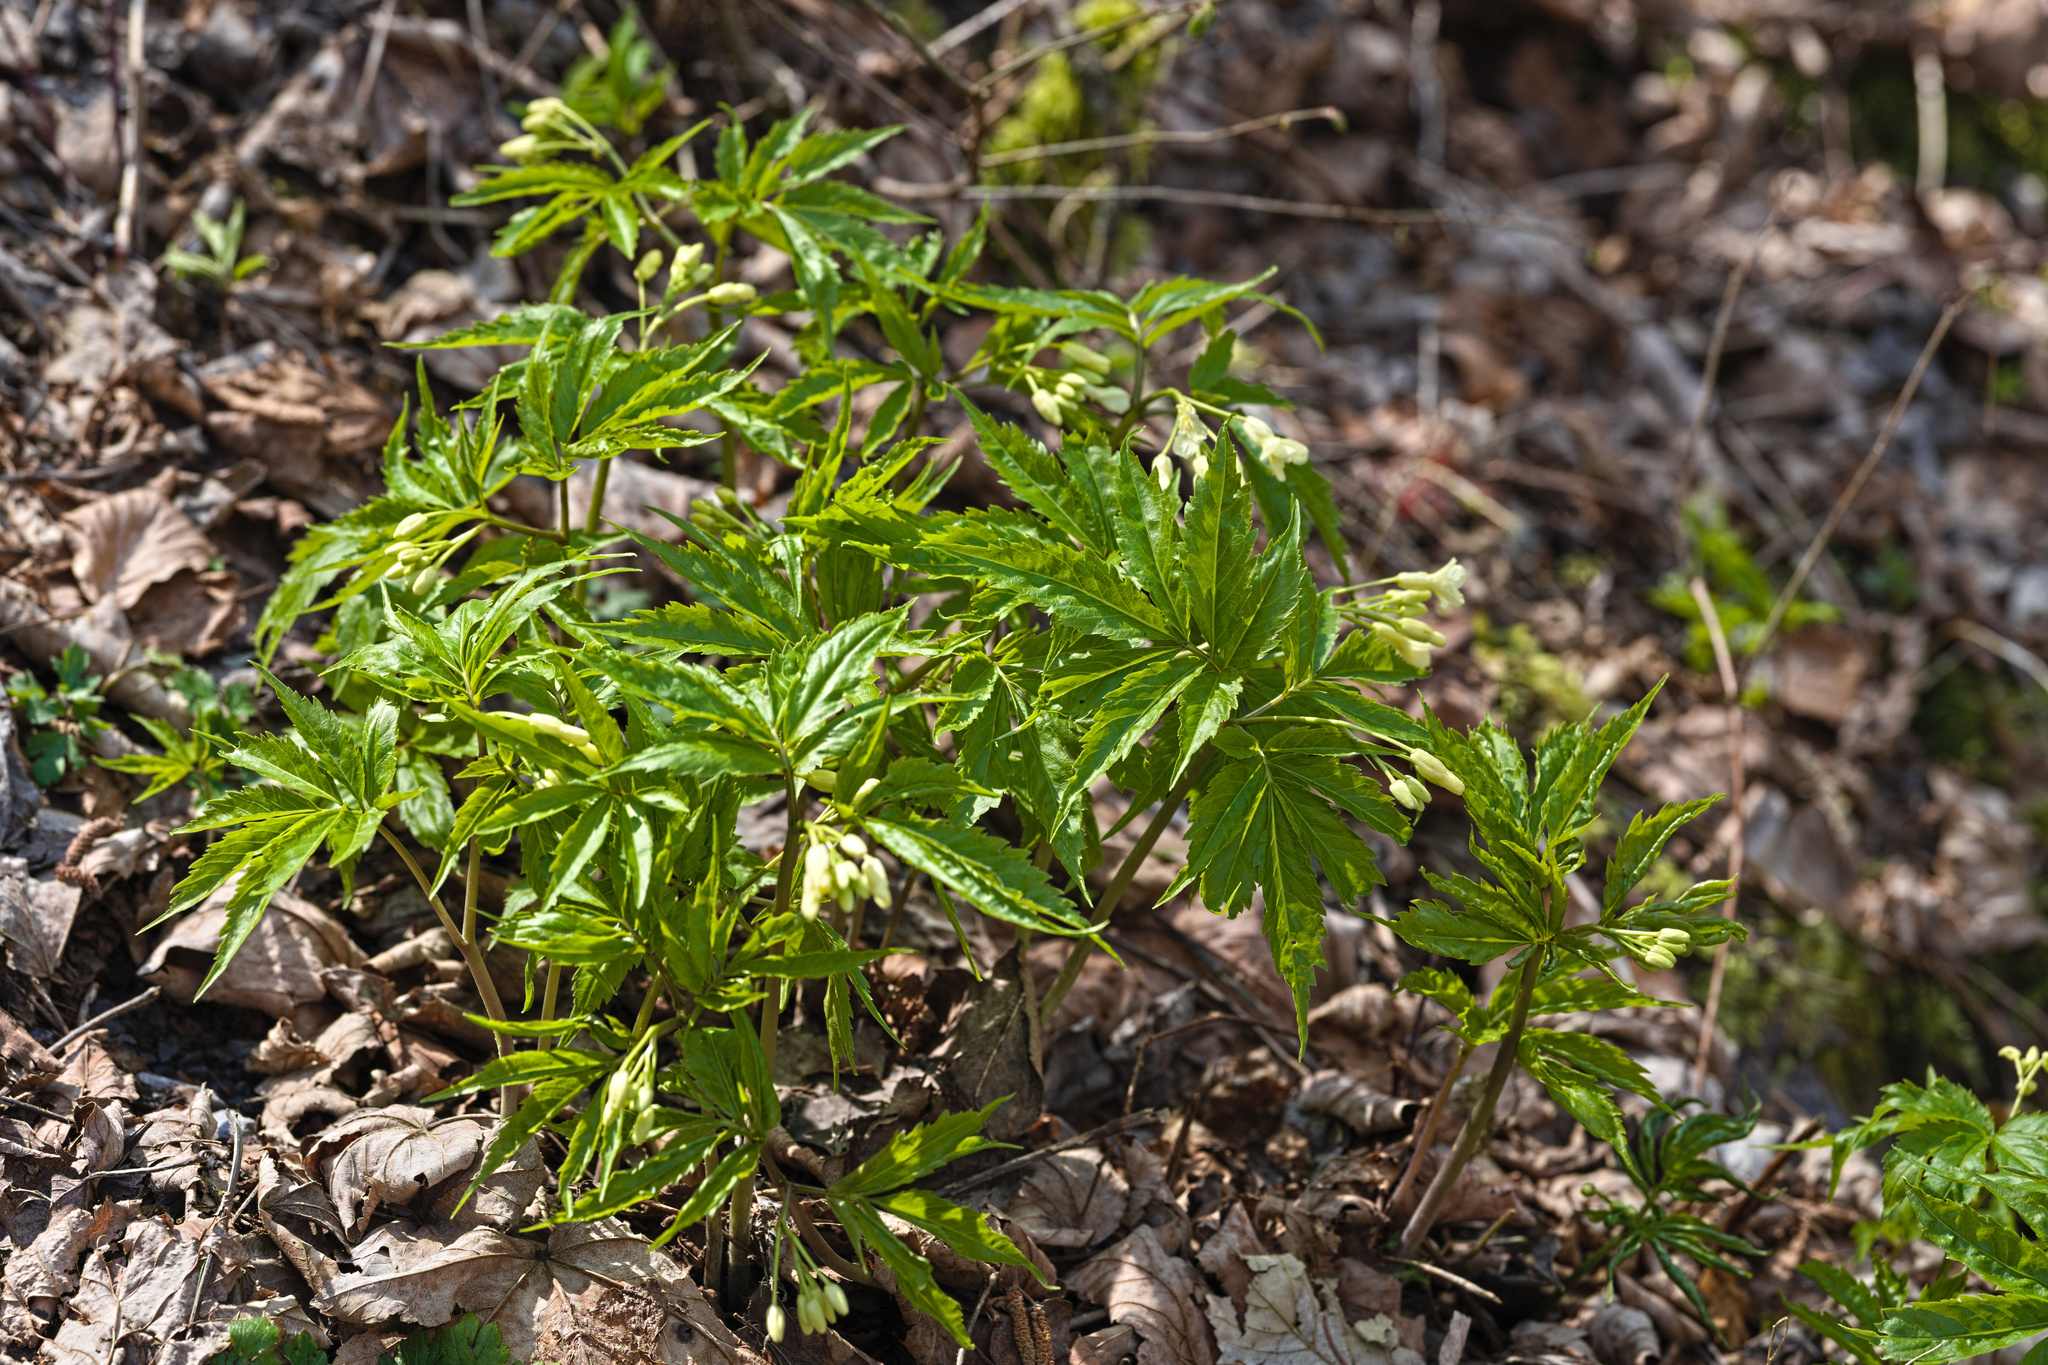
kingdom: Plantae
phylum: Tracheophyta
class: Magnoliopsida
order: Brassicales
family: Brassicaceae
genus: Cardamine
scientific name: Cardamine kitaibelii
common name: Kitaibel's bitter-cress
